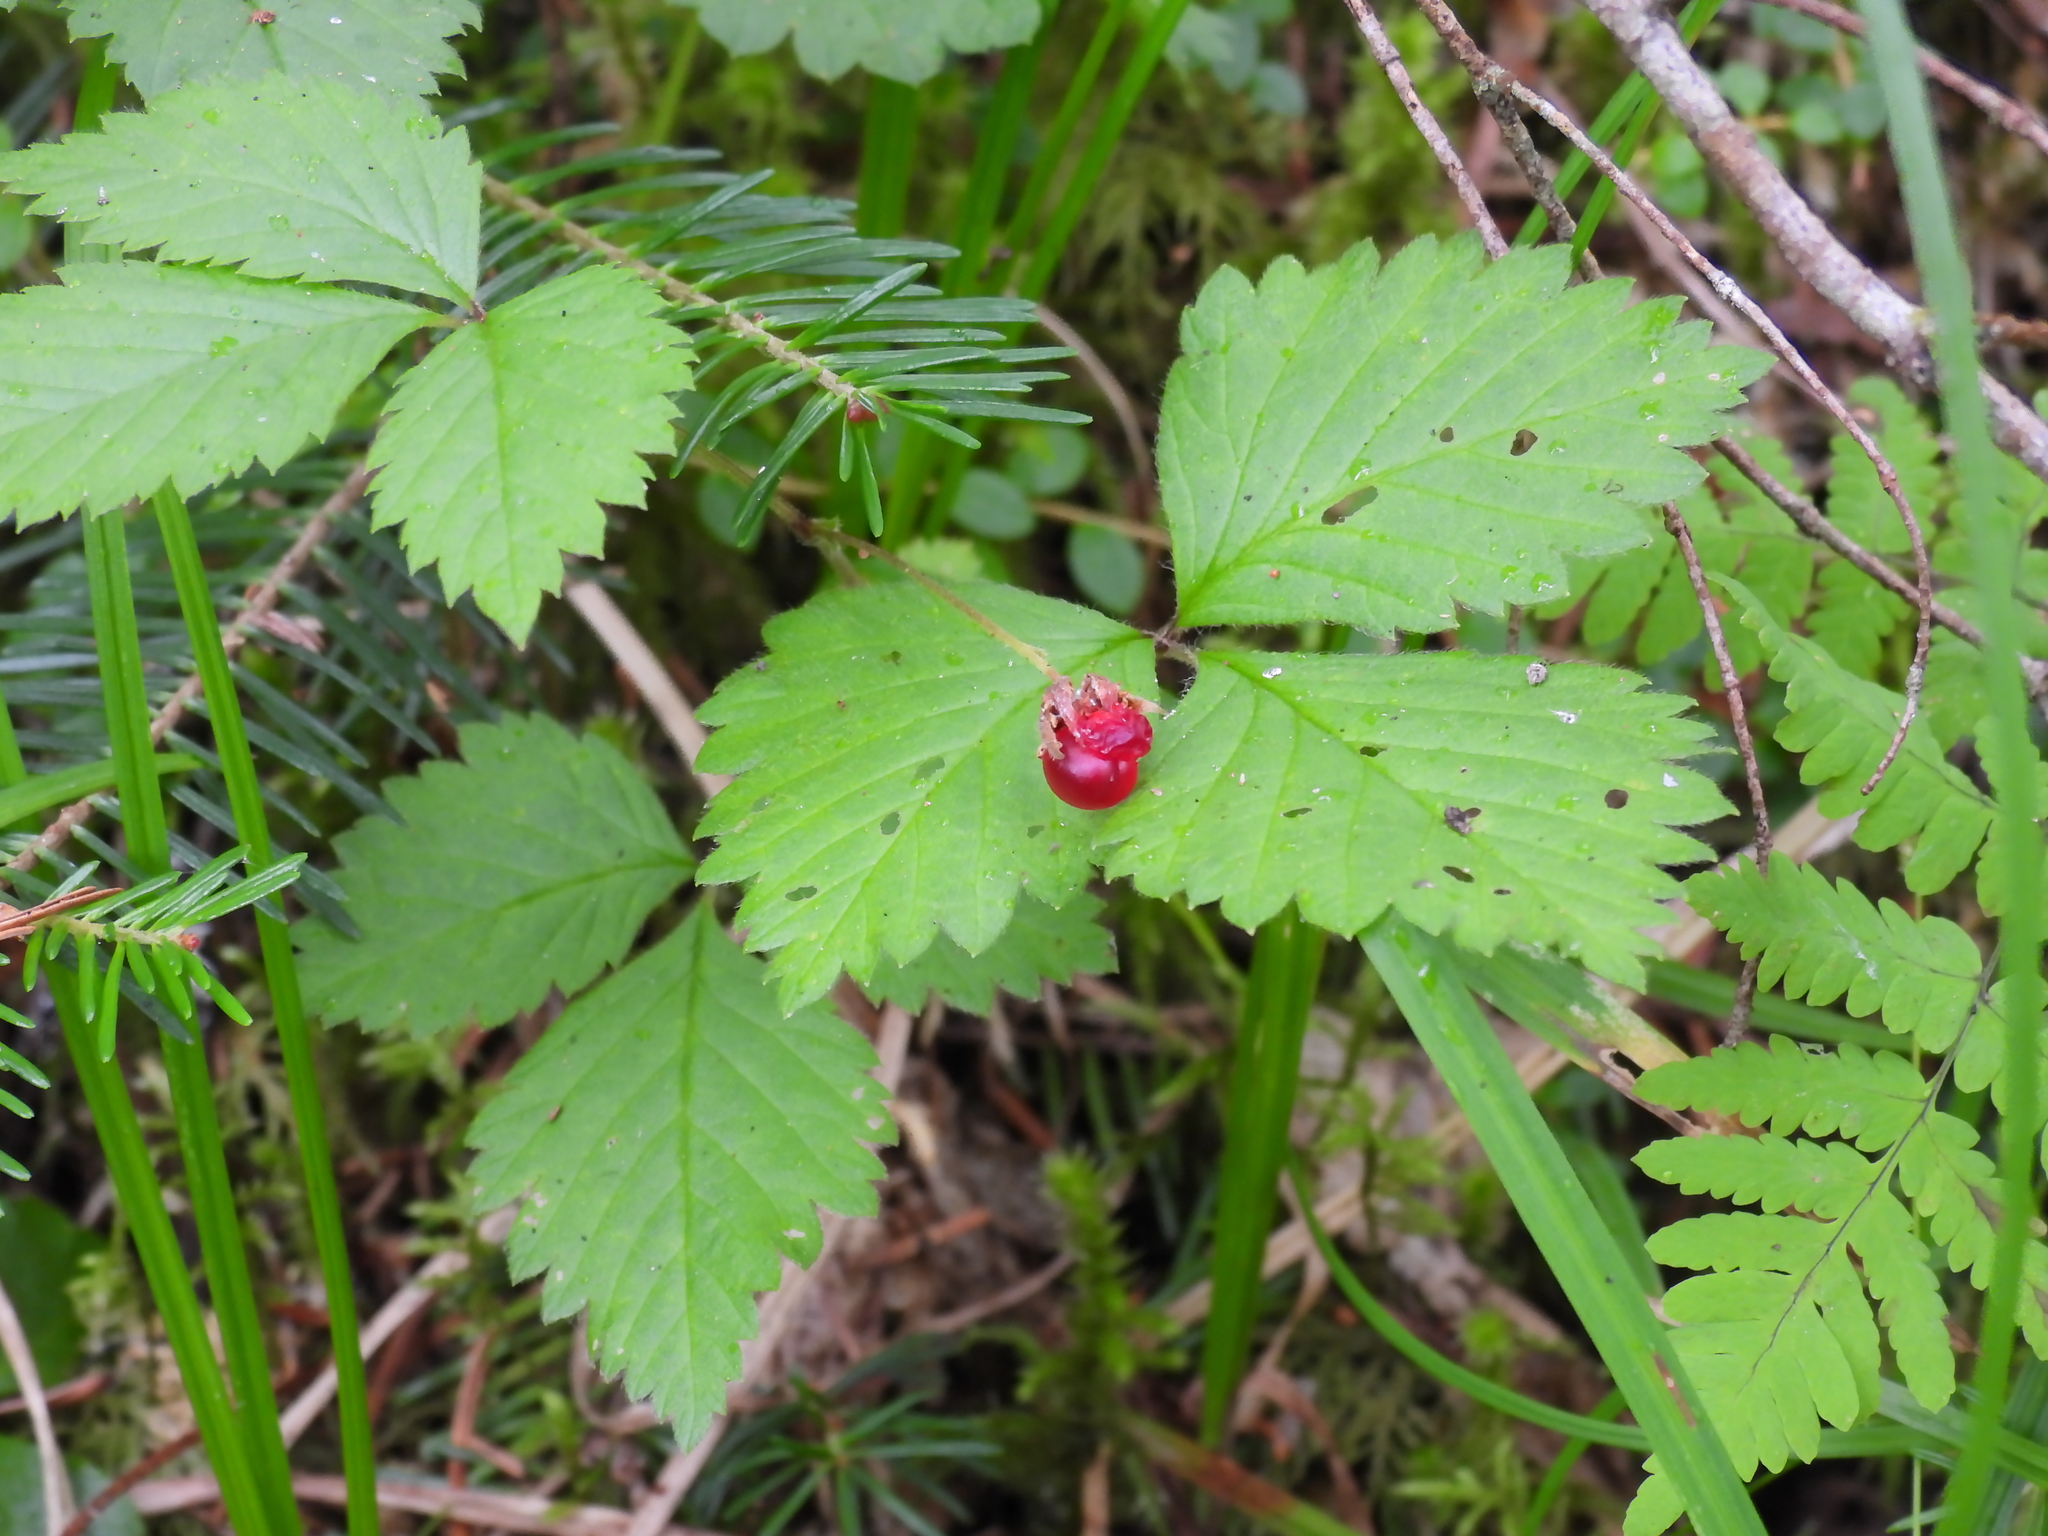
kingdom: Plantae
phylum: Tracheophyta
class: Magnoliopsida
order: Rosales
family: Rosaceae
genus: Rubus
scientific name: Rubus pubescens
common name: Dwarf raspberry
